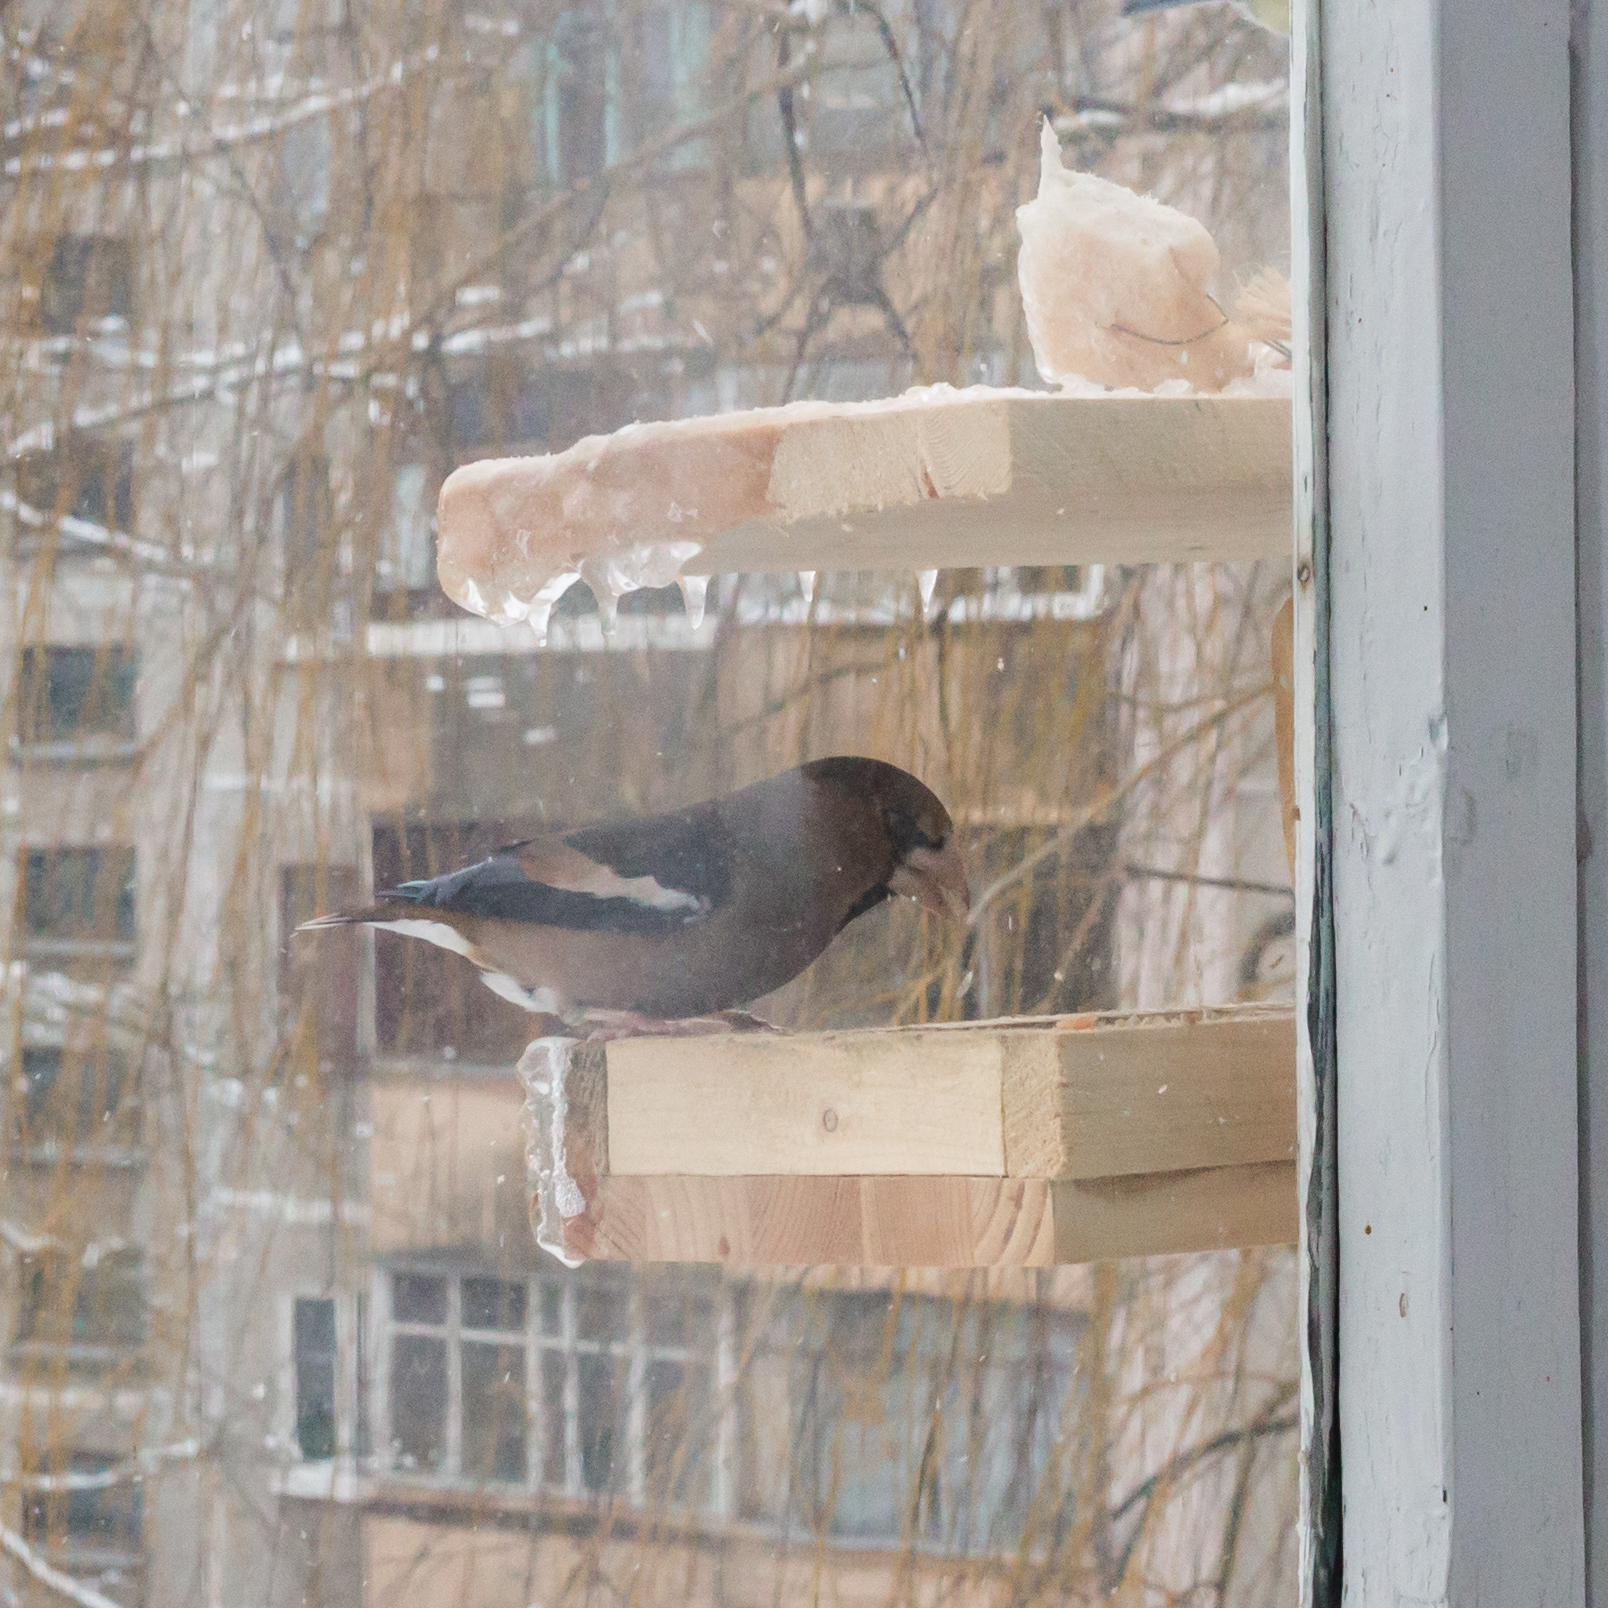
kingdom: Animalia
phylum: Chordata
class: Aves
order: Passeriformes
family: Fringillidae
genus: Coccothraustes
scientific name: Coccothraustes coccothraustes
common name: Hawfinch
